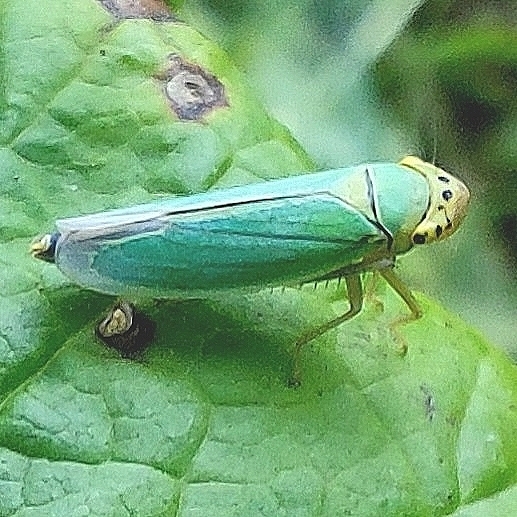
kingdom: Animalia
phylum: Arthropoda
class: Insecta
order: Hemiptera
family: Cicadellidae
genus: Cicadella
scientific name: Cicadella viridis
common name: Leafhopper
